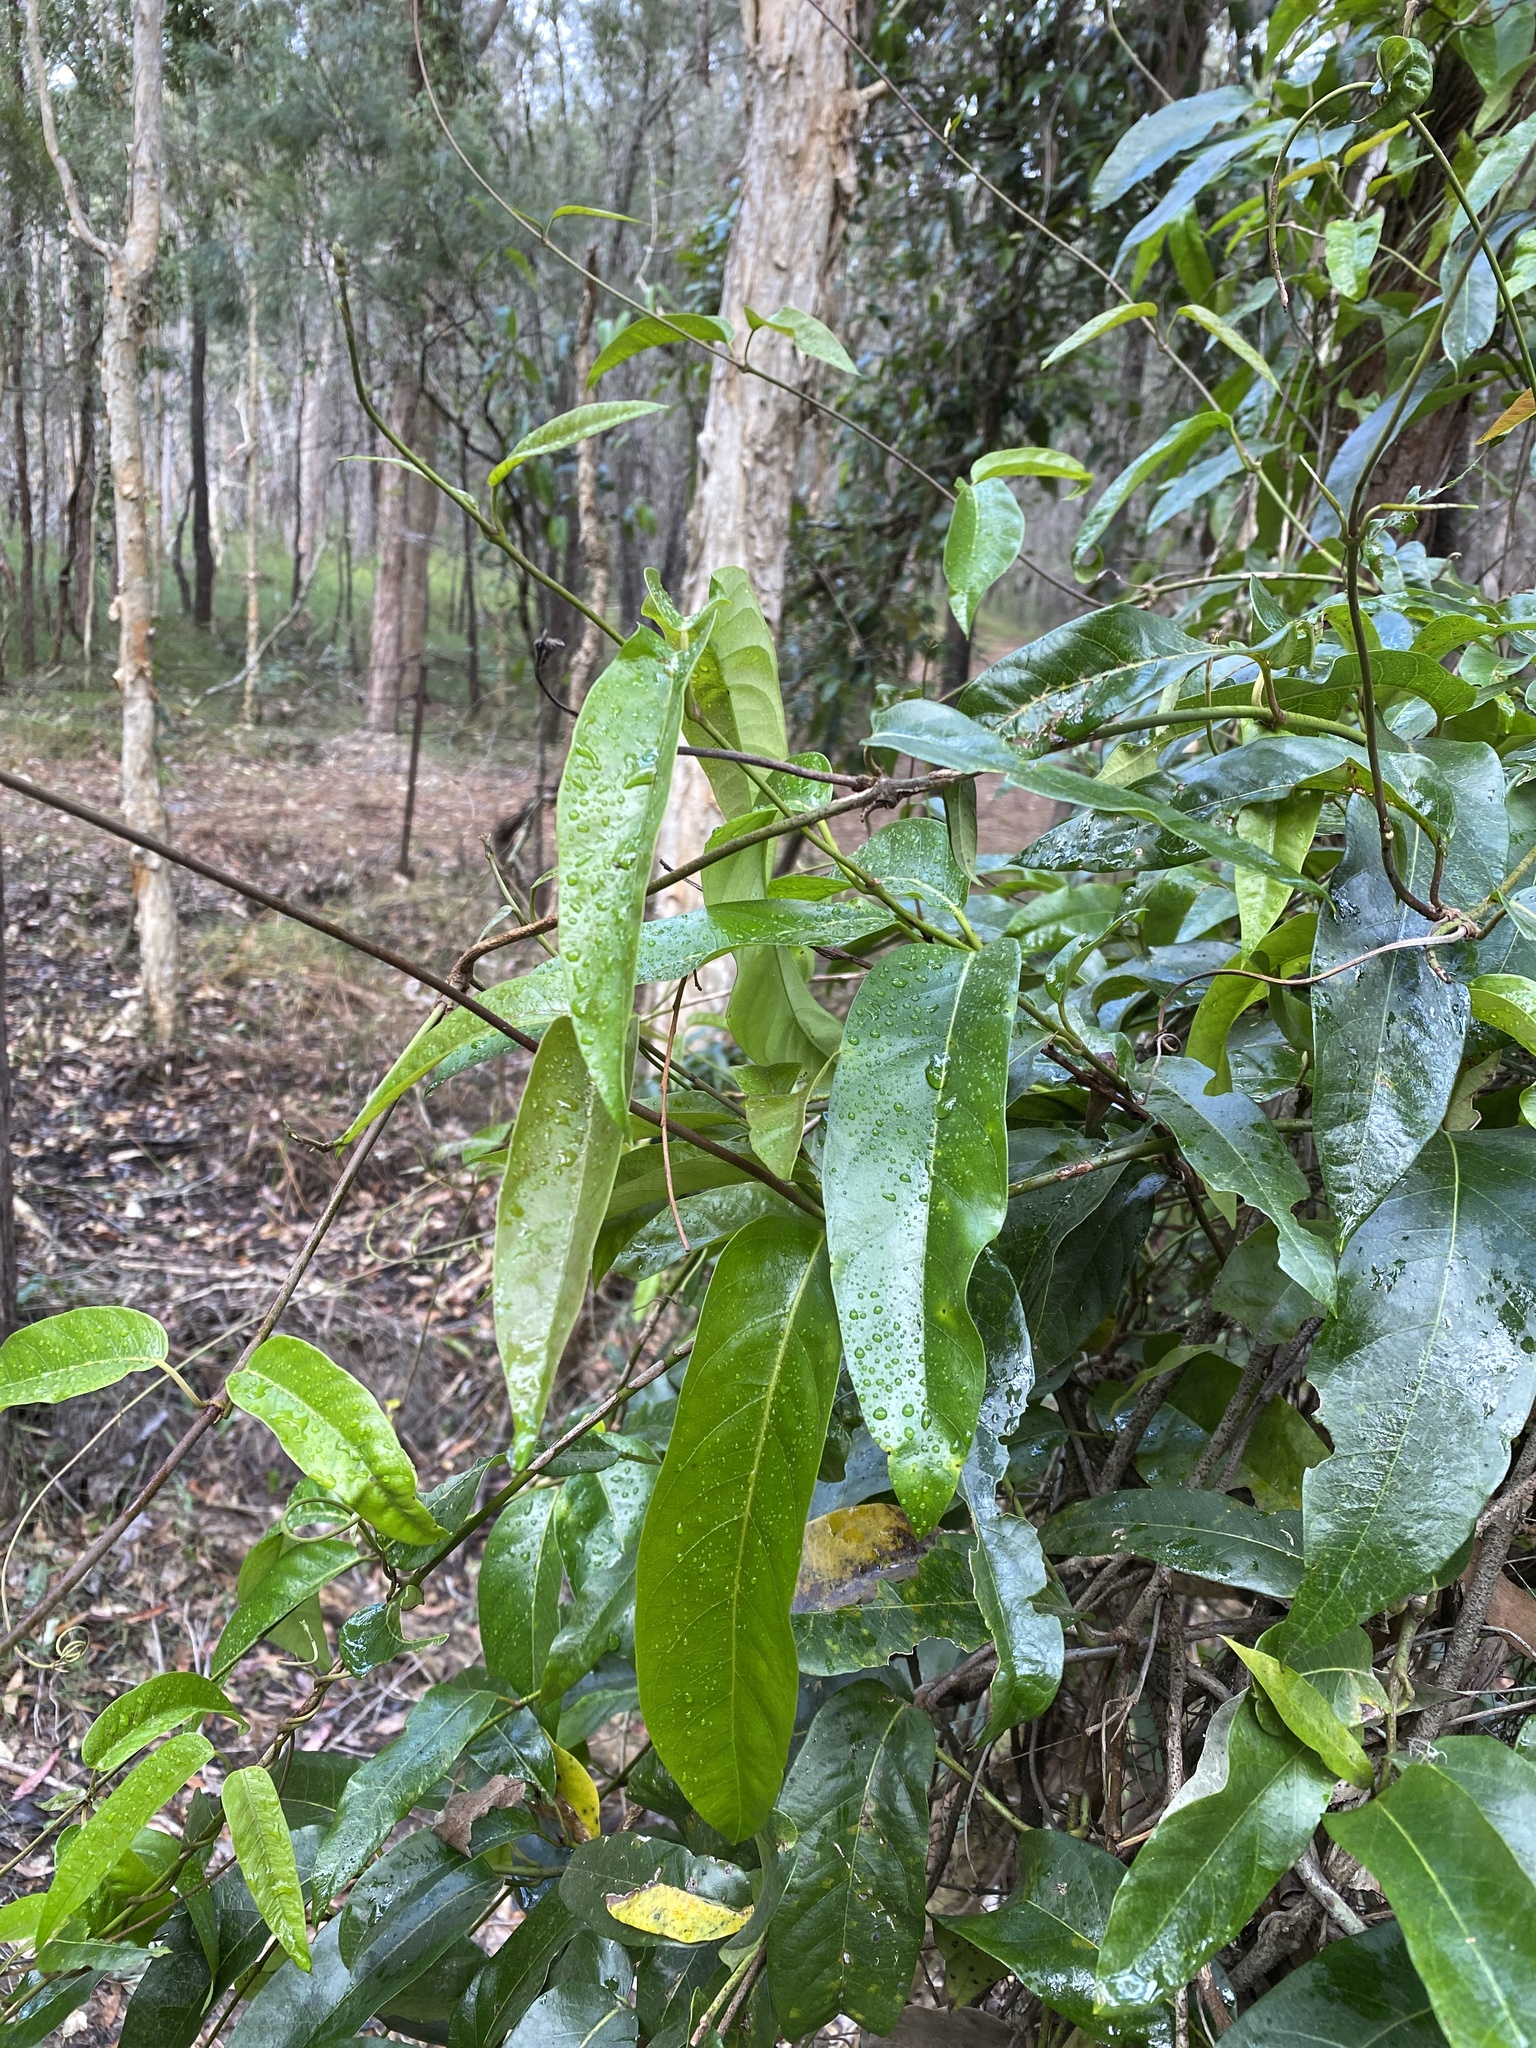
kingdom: Plantae
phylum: Tracheophyta
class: Magnoliopsida
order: Gentianales
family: Apocynaceae
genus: Parsonsia
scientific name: Parsonsia straminea
